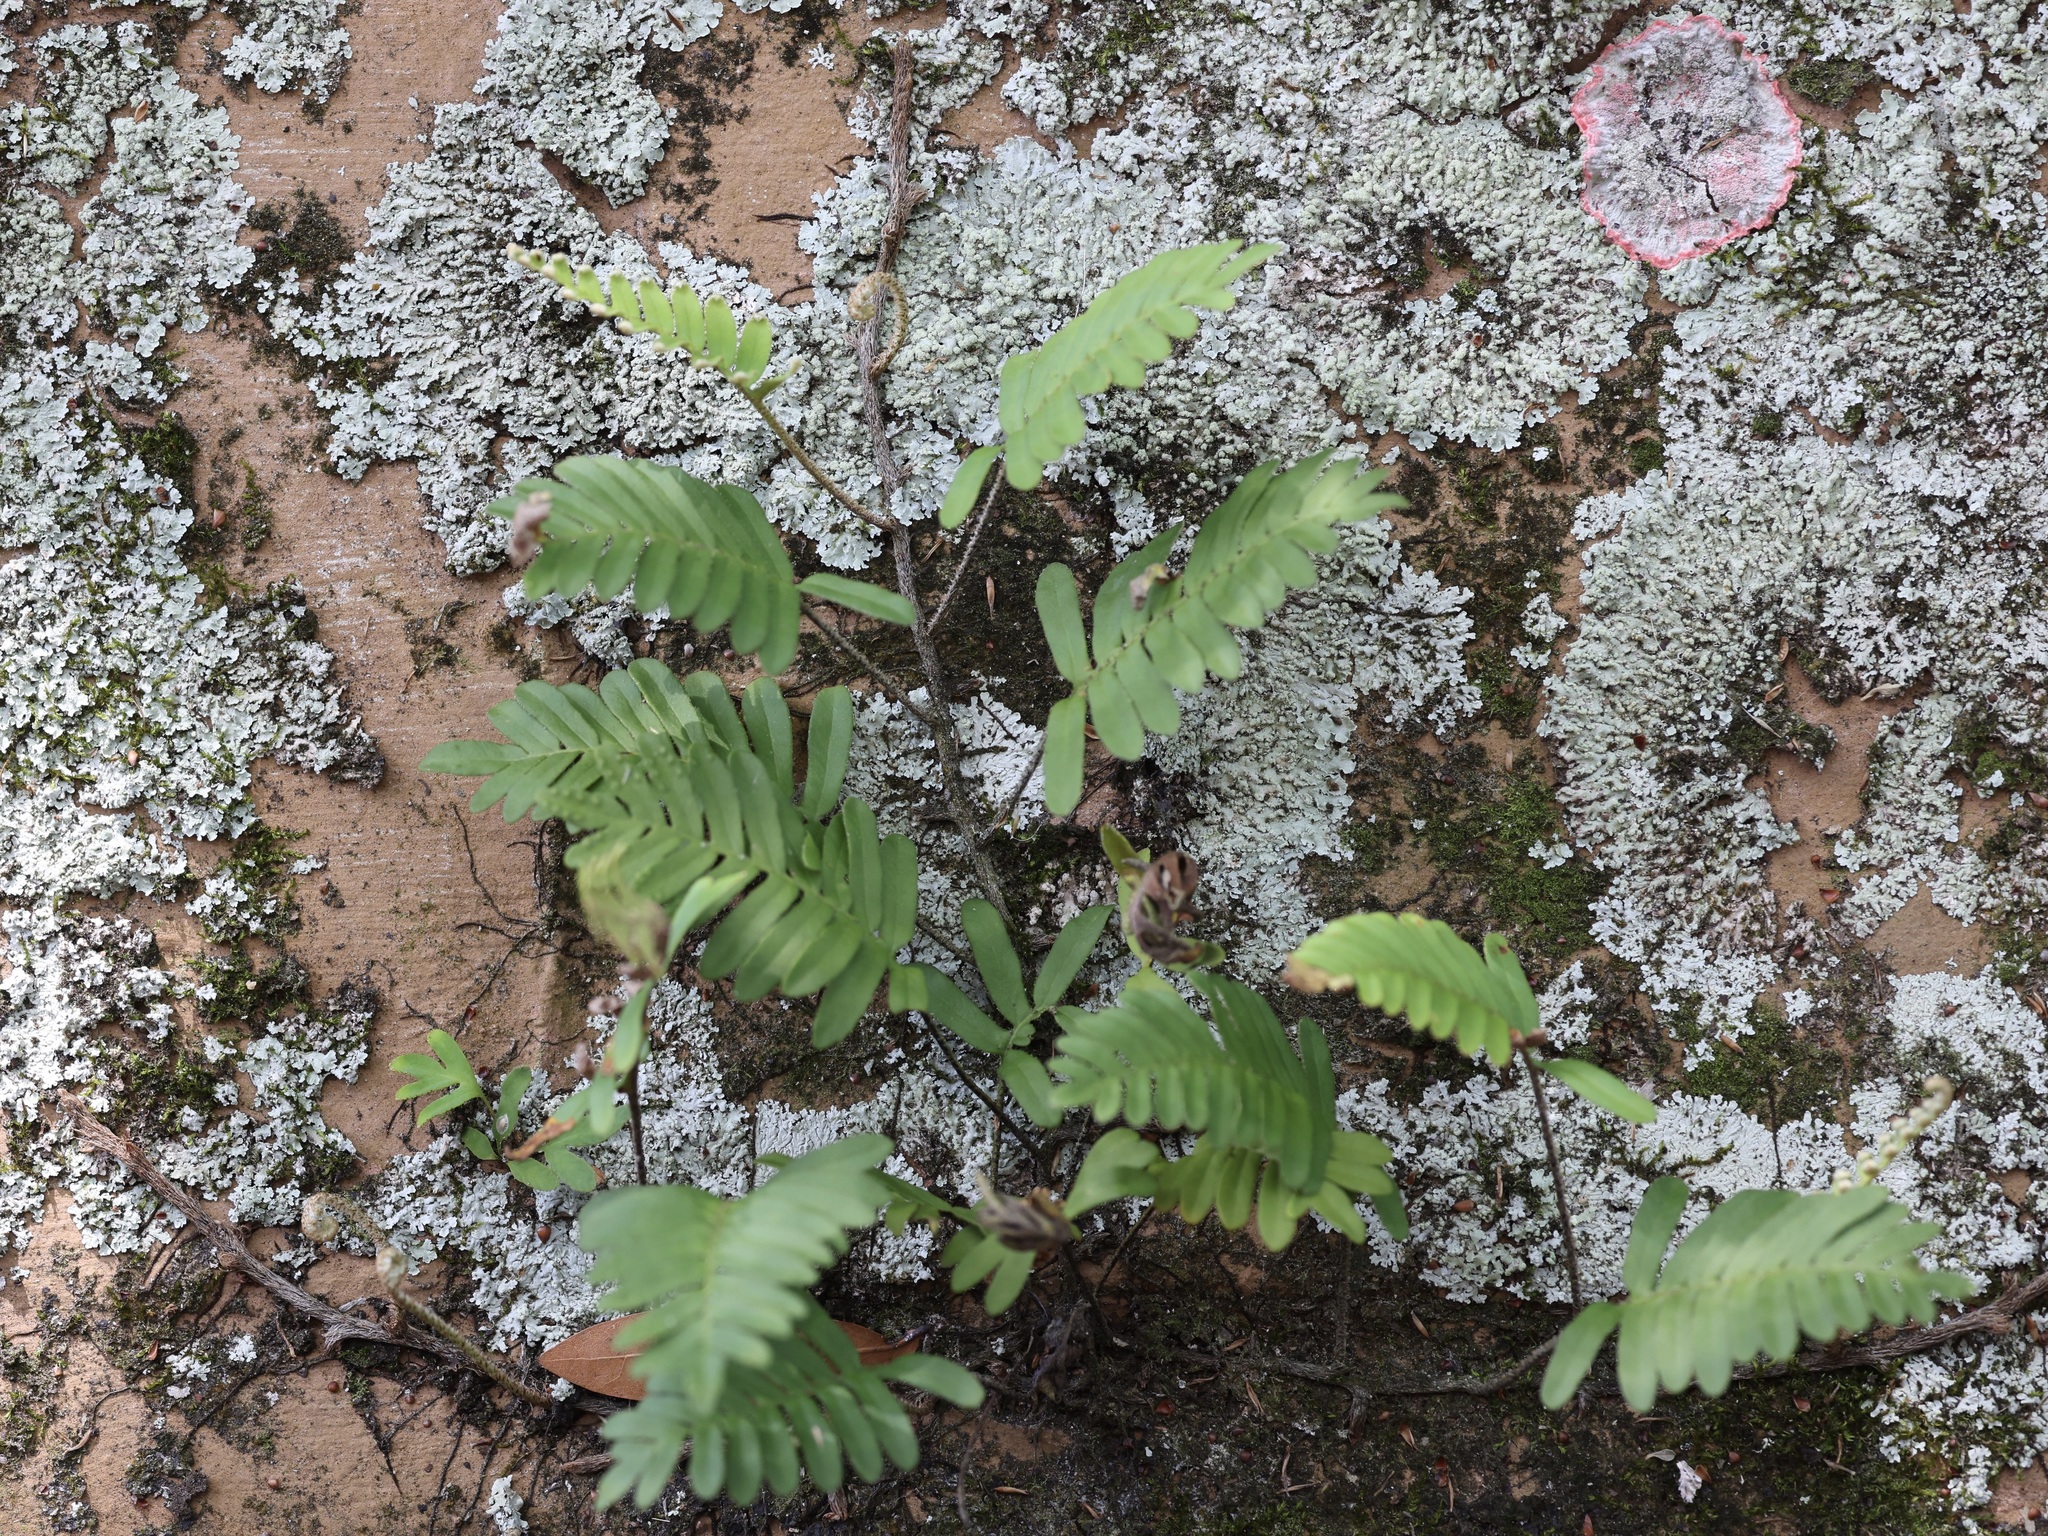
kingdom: Plantae
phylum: Tracheophyta
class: Polypodiopsida
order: Polypodiales
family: Polypodiaceae
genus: Pleopeltis
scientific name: Pleopeltis michauxiana
